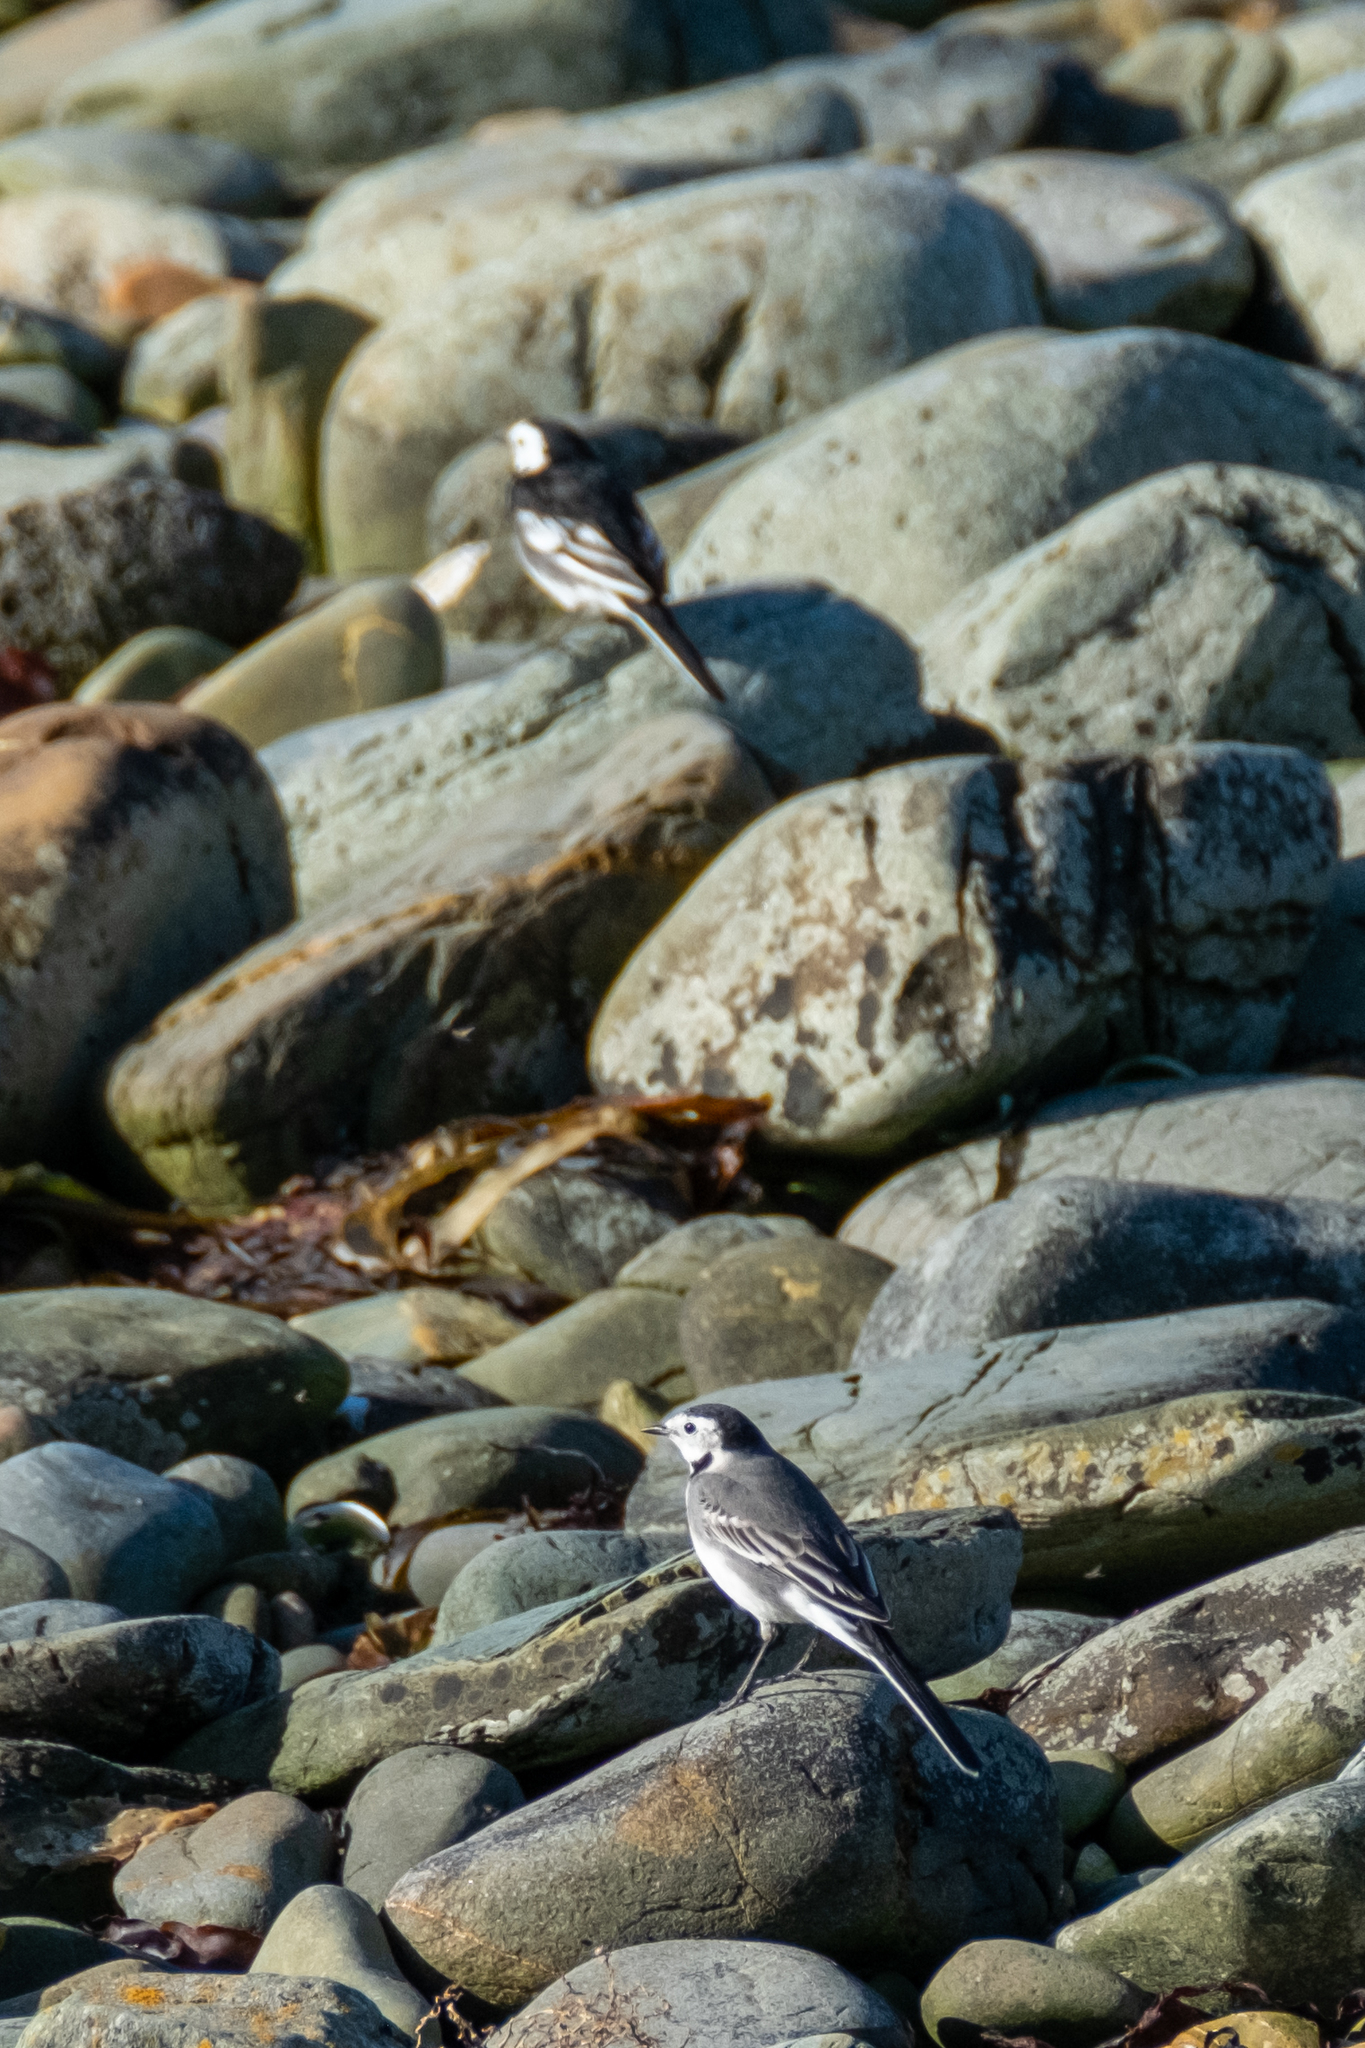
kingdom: Animalia
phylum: Chordata
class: Aves
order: Passeriformes
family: Motacillidae
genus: Motacilla
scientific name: Motacilla alba
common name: White wagtail
